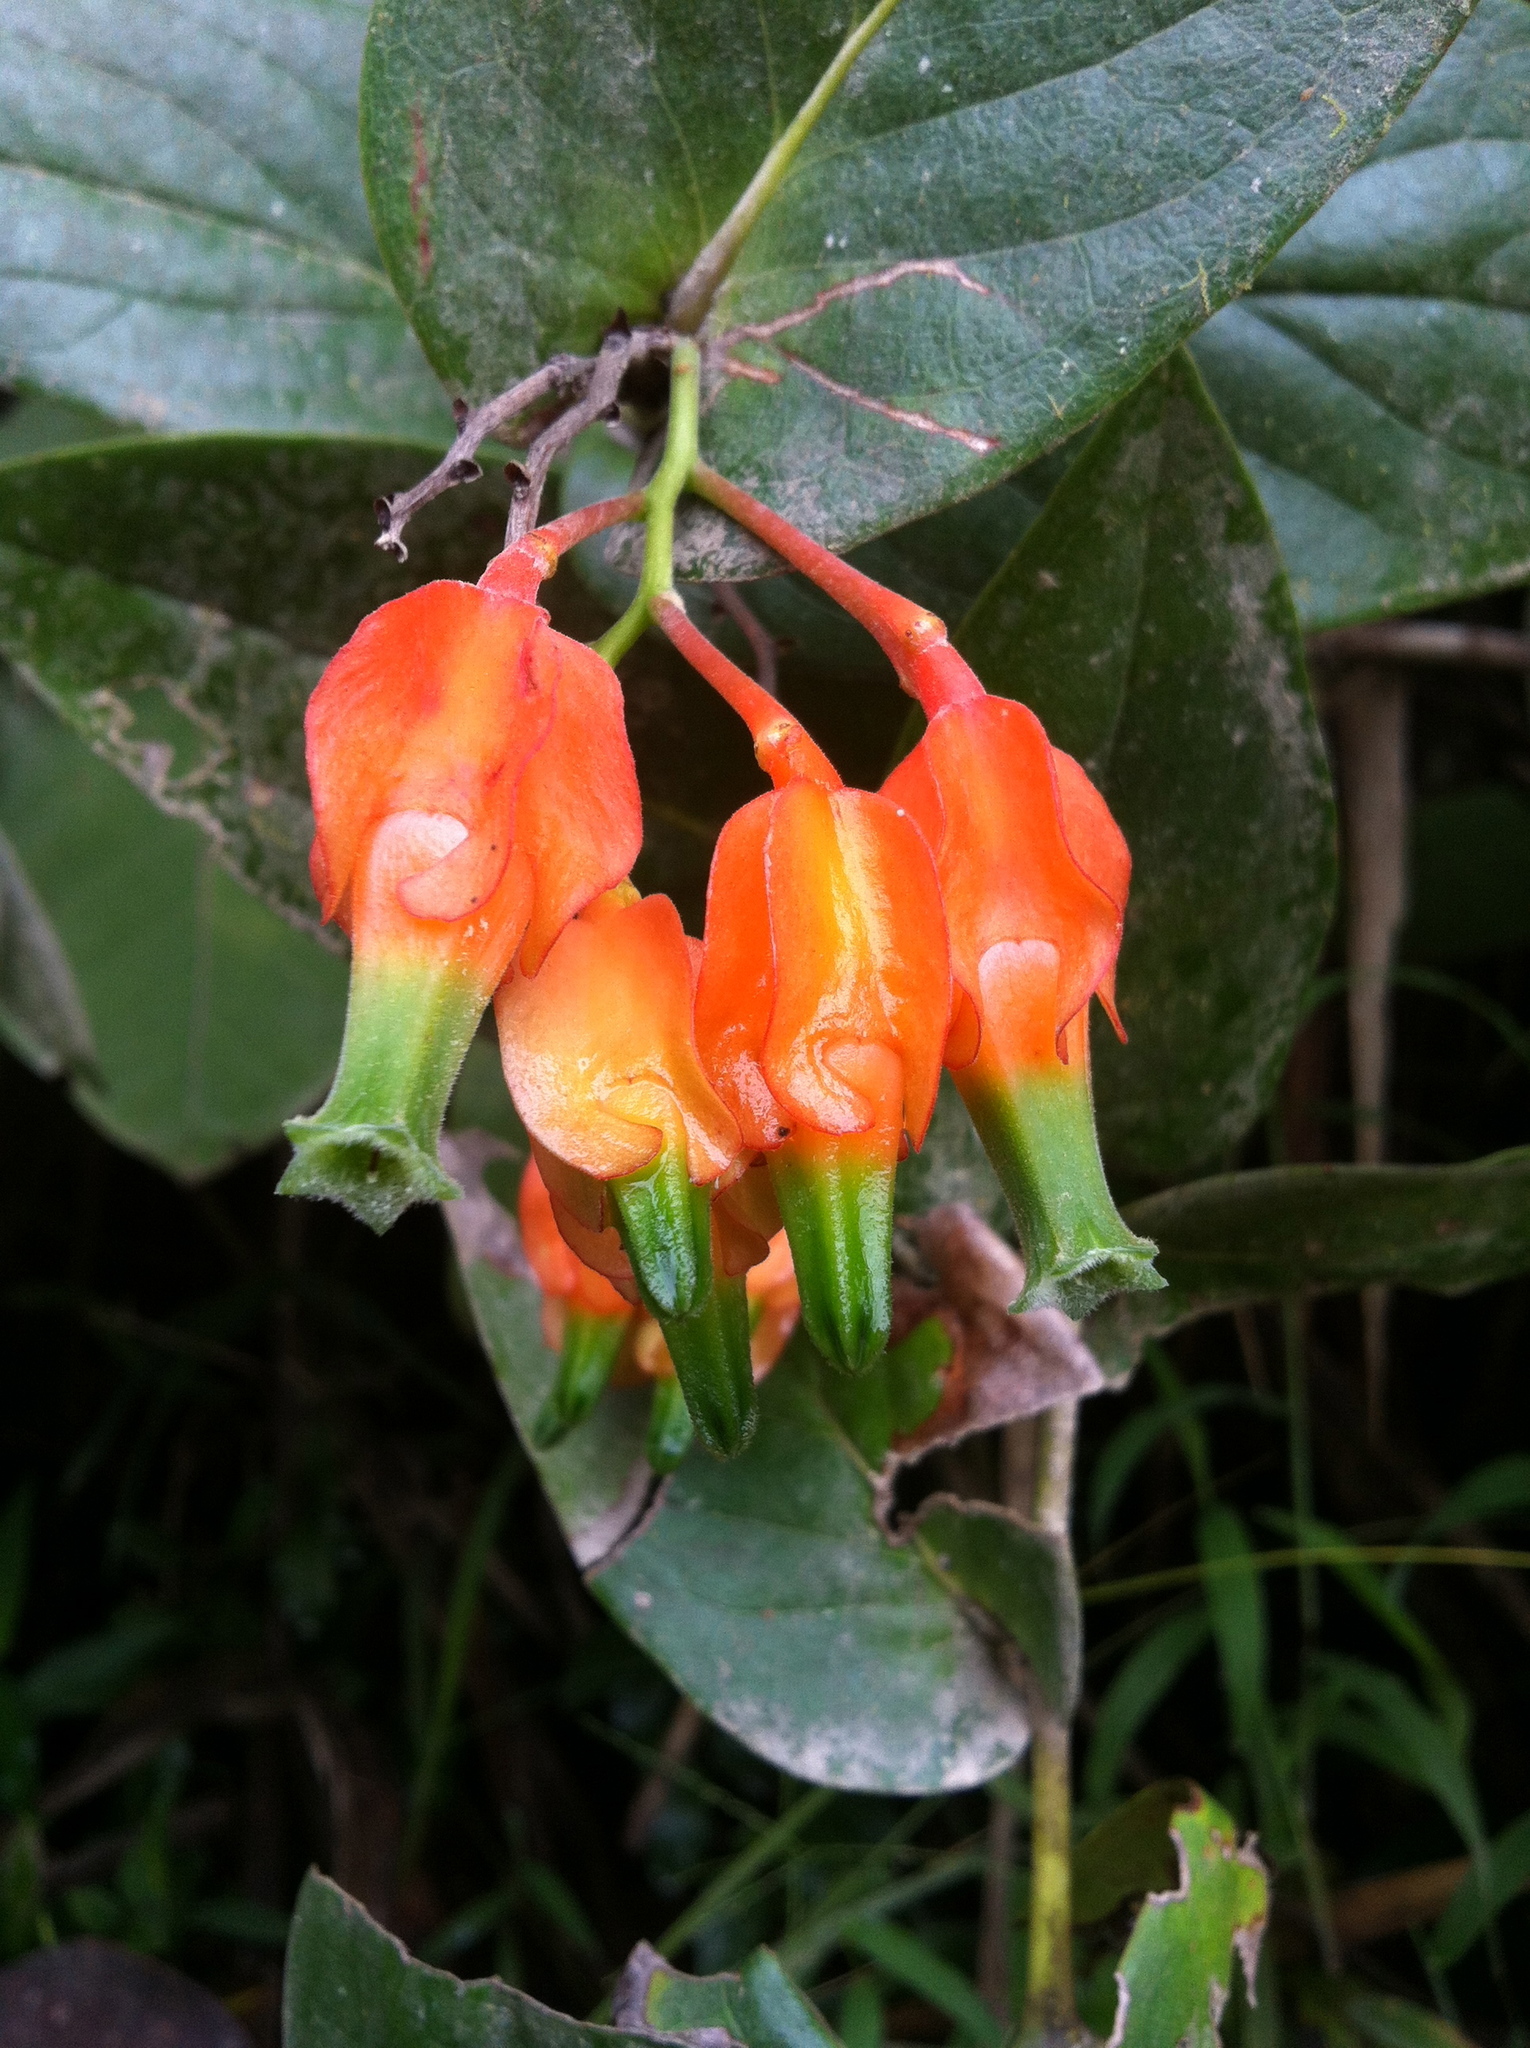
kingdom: Plantae
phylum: Tracheophyta
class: Magnoliopsida
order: Ericales
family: Ericaceae
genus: Macleania
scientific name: Macleania pentaptera
